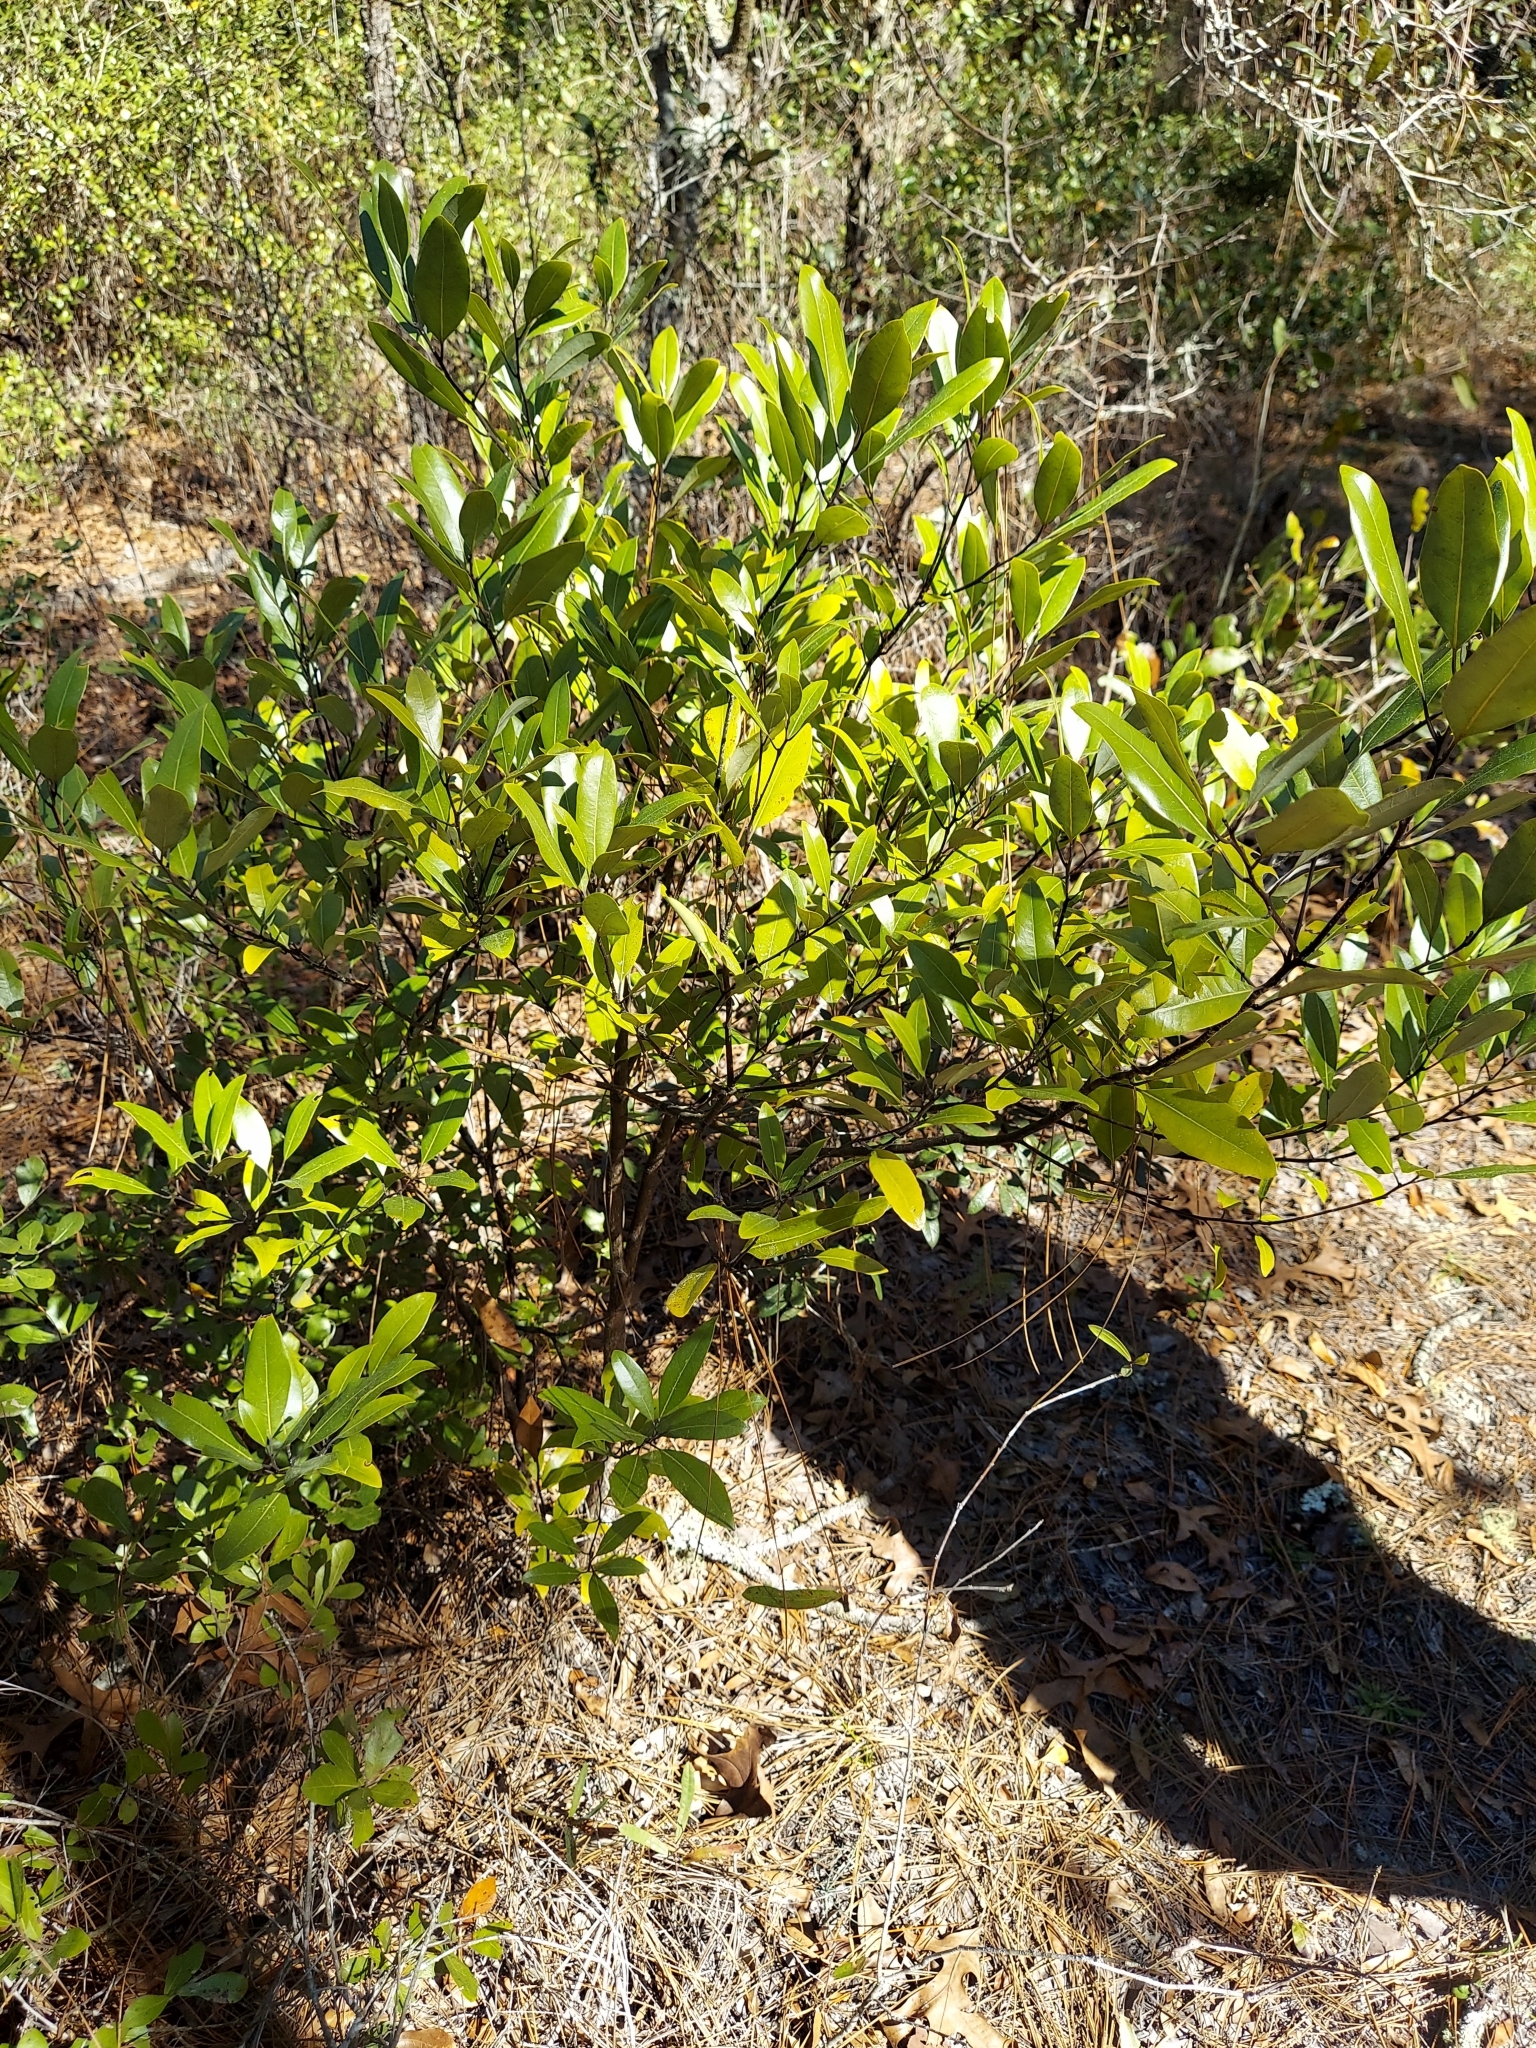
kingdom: Plantae
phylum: Tracheophyta
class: Magnoliopsida
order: Laurales
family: Lauraceae
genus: Persea
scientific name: Persea borbonia
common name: Redbay
